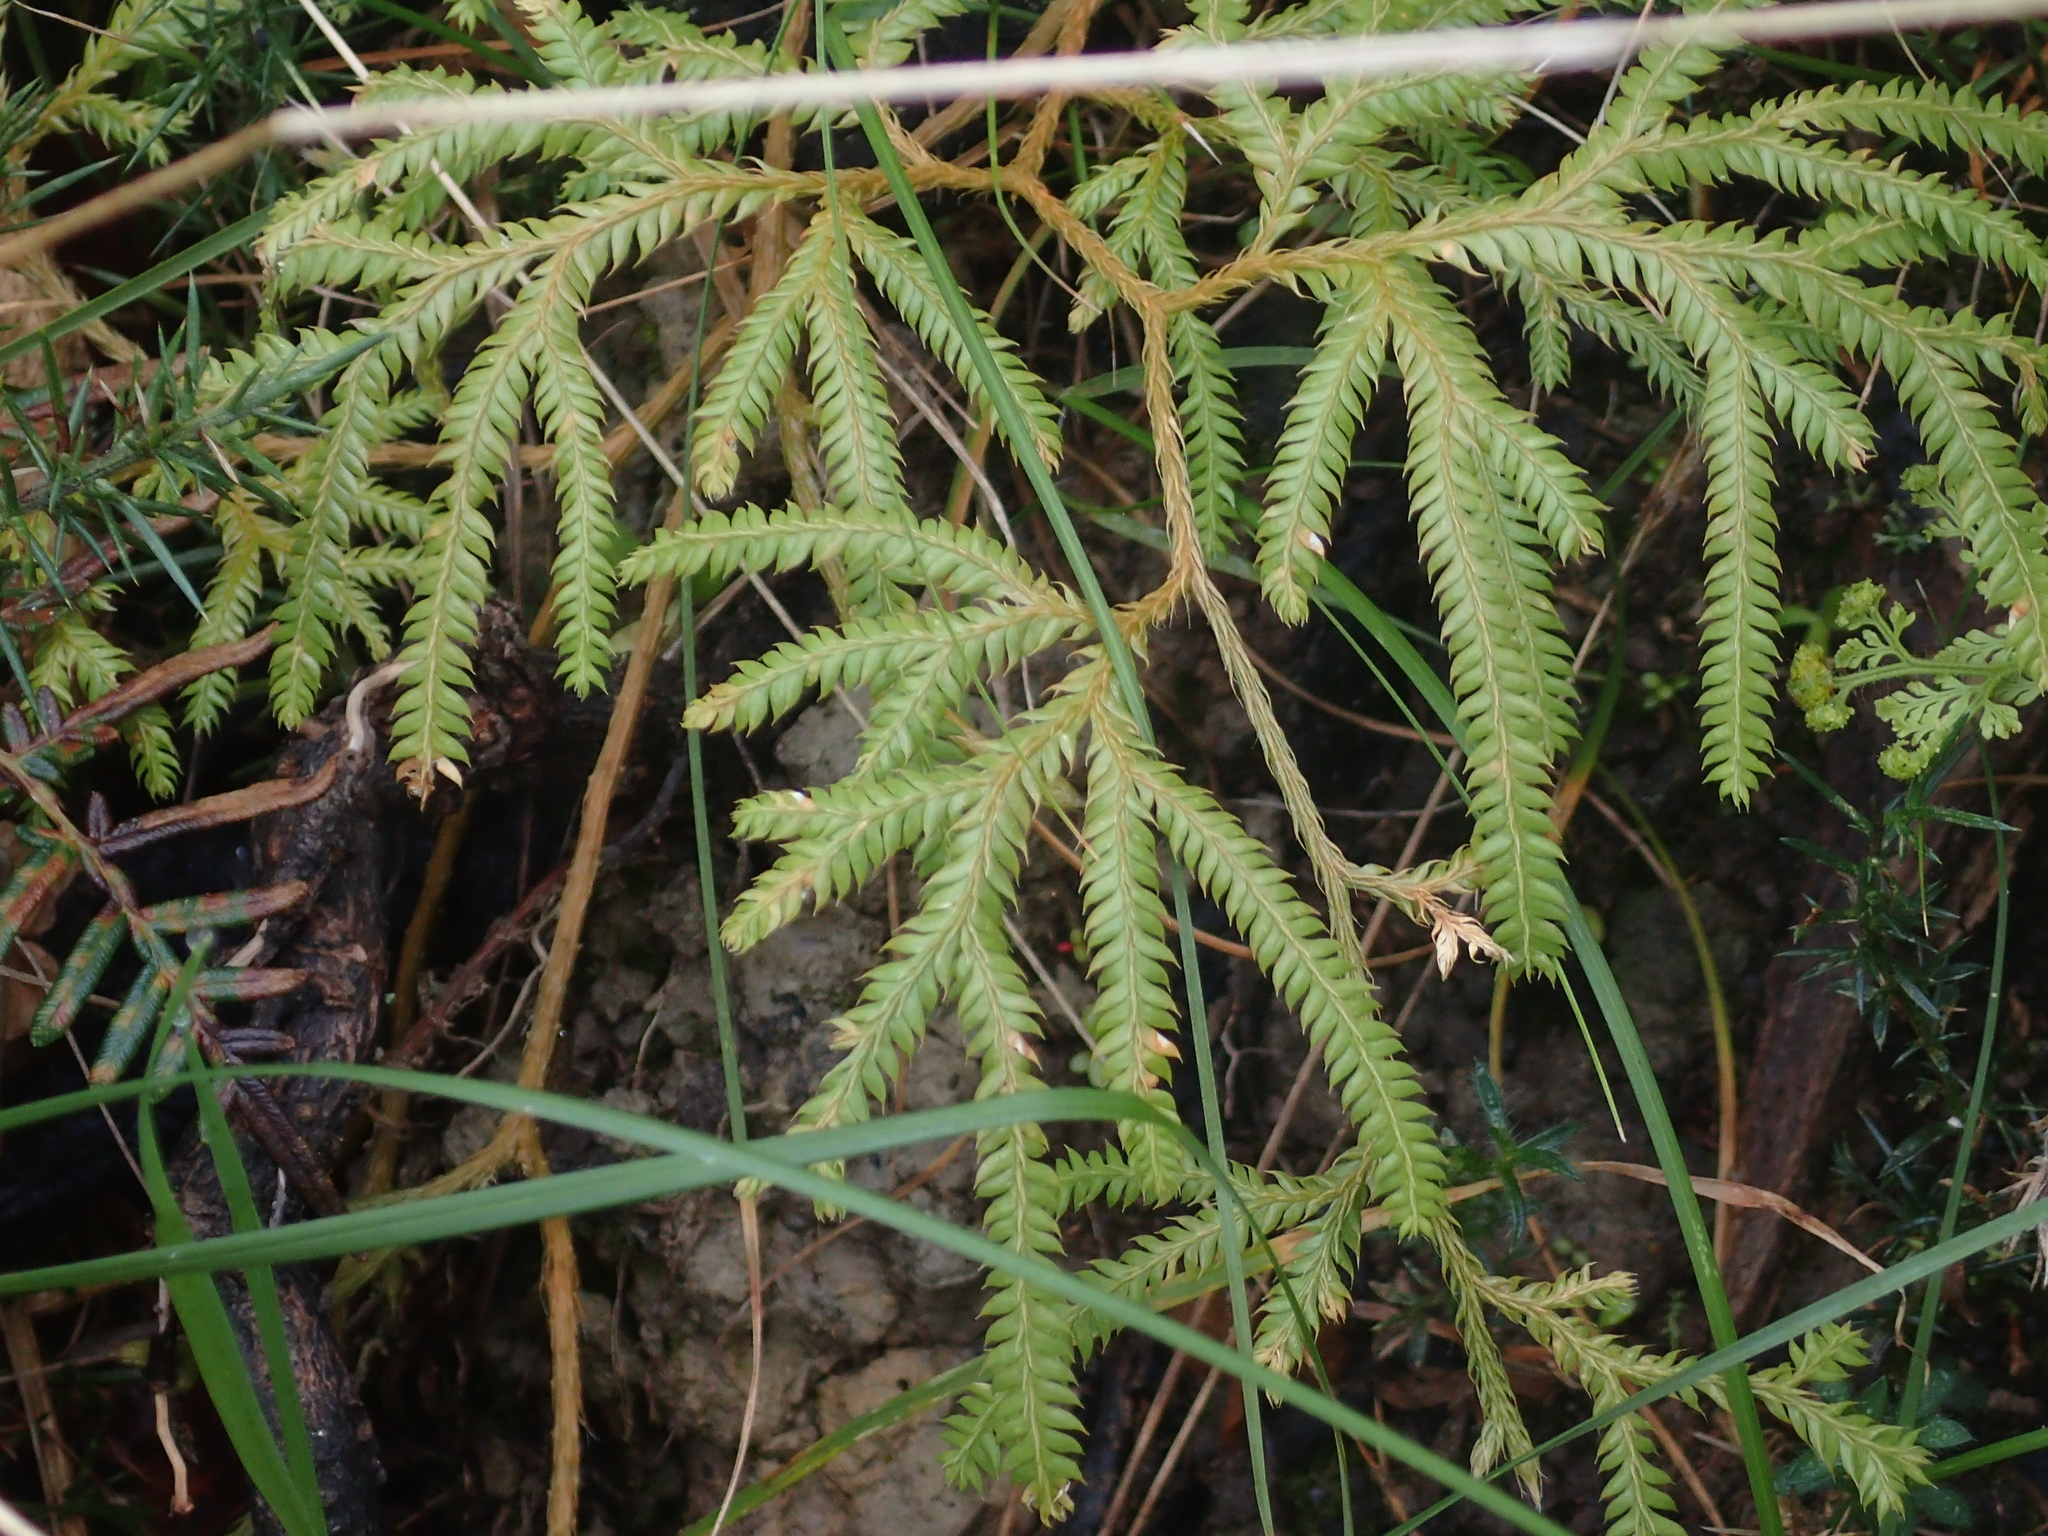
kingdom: Plantae
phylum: Tracheophyta
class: Lycopodiopsida
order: Lycopodiales
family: Lycopodiaceae
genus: Lycopodium
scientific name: Lycopodium volubile
